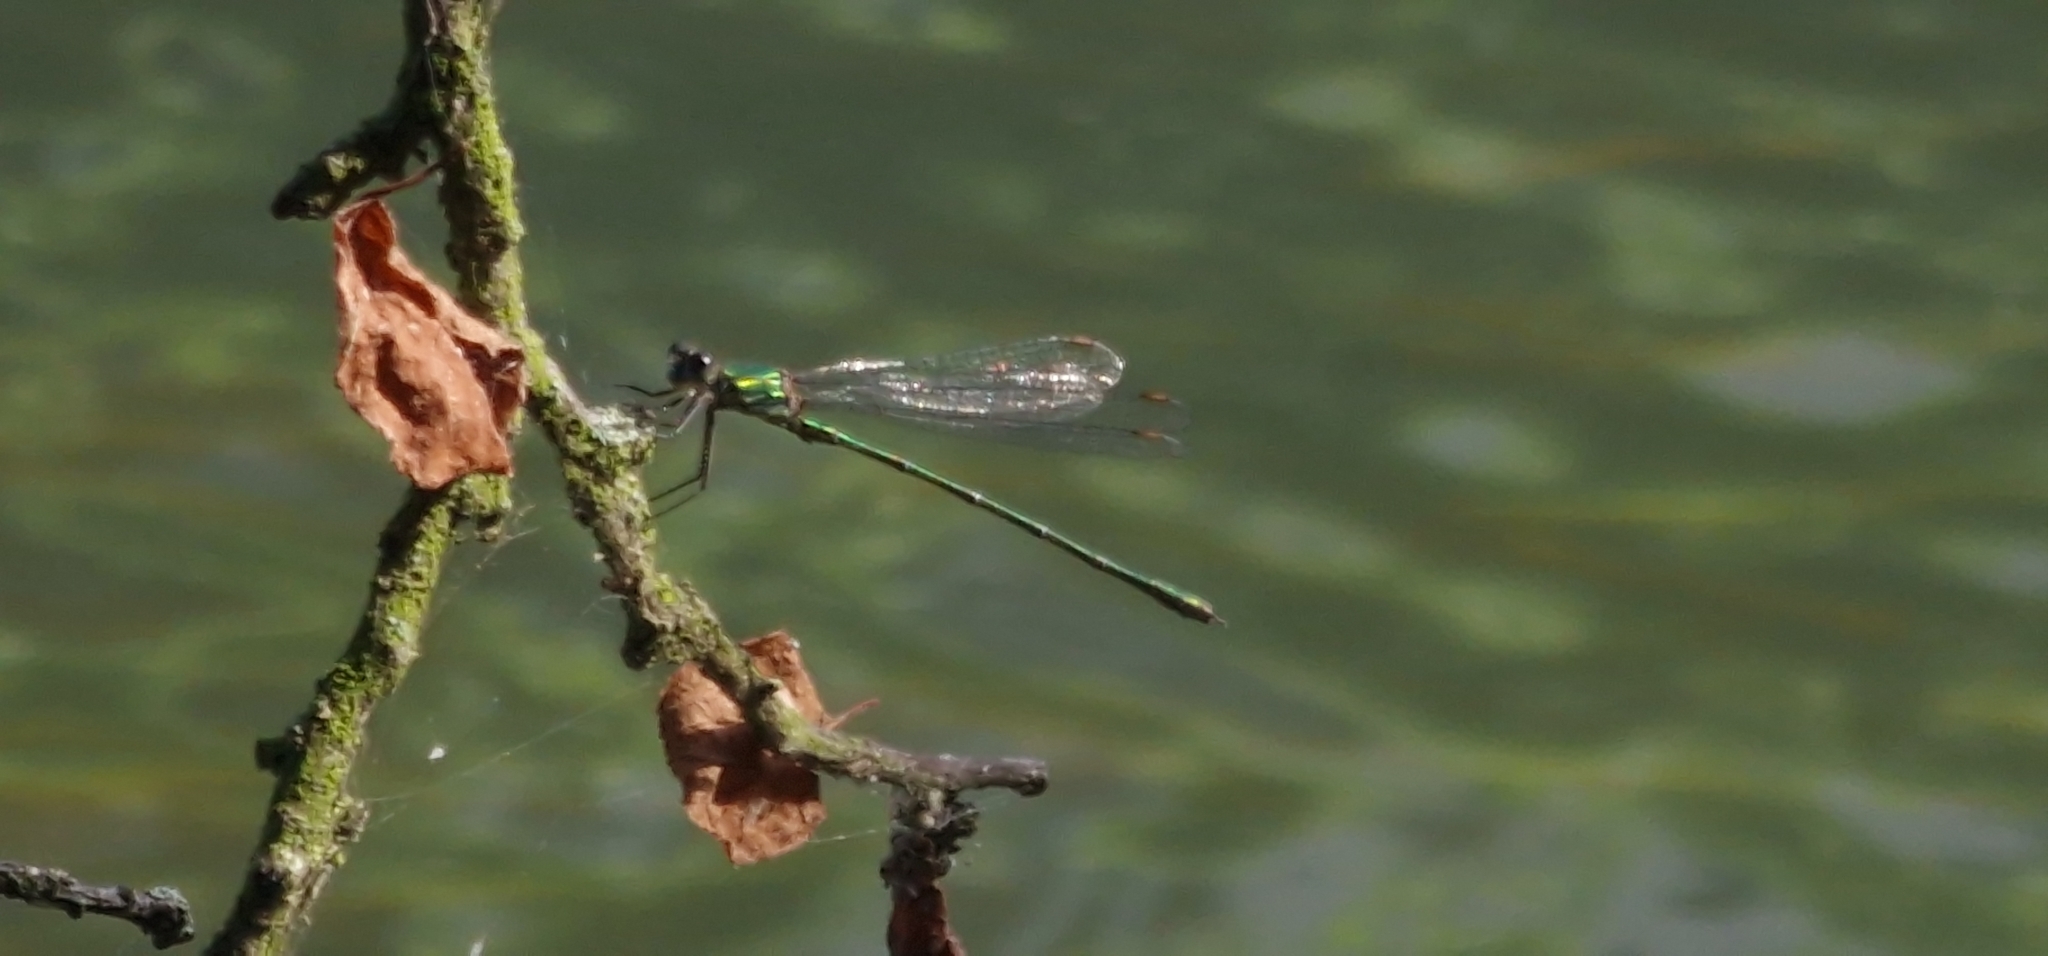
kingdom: Animalia
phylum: Arthropoda
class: Insecta
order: Odonata
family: Lestidae
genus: Chalcolestes
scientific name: Chalcolestes viridis
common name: Green emerald damselfly
